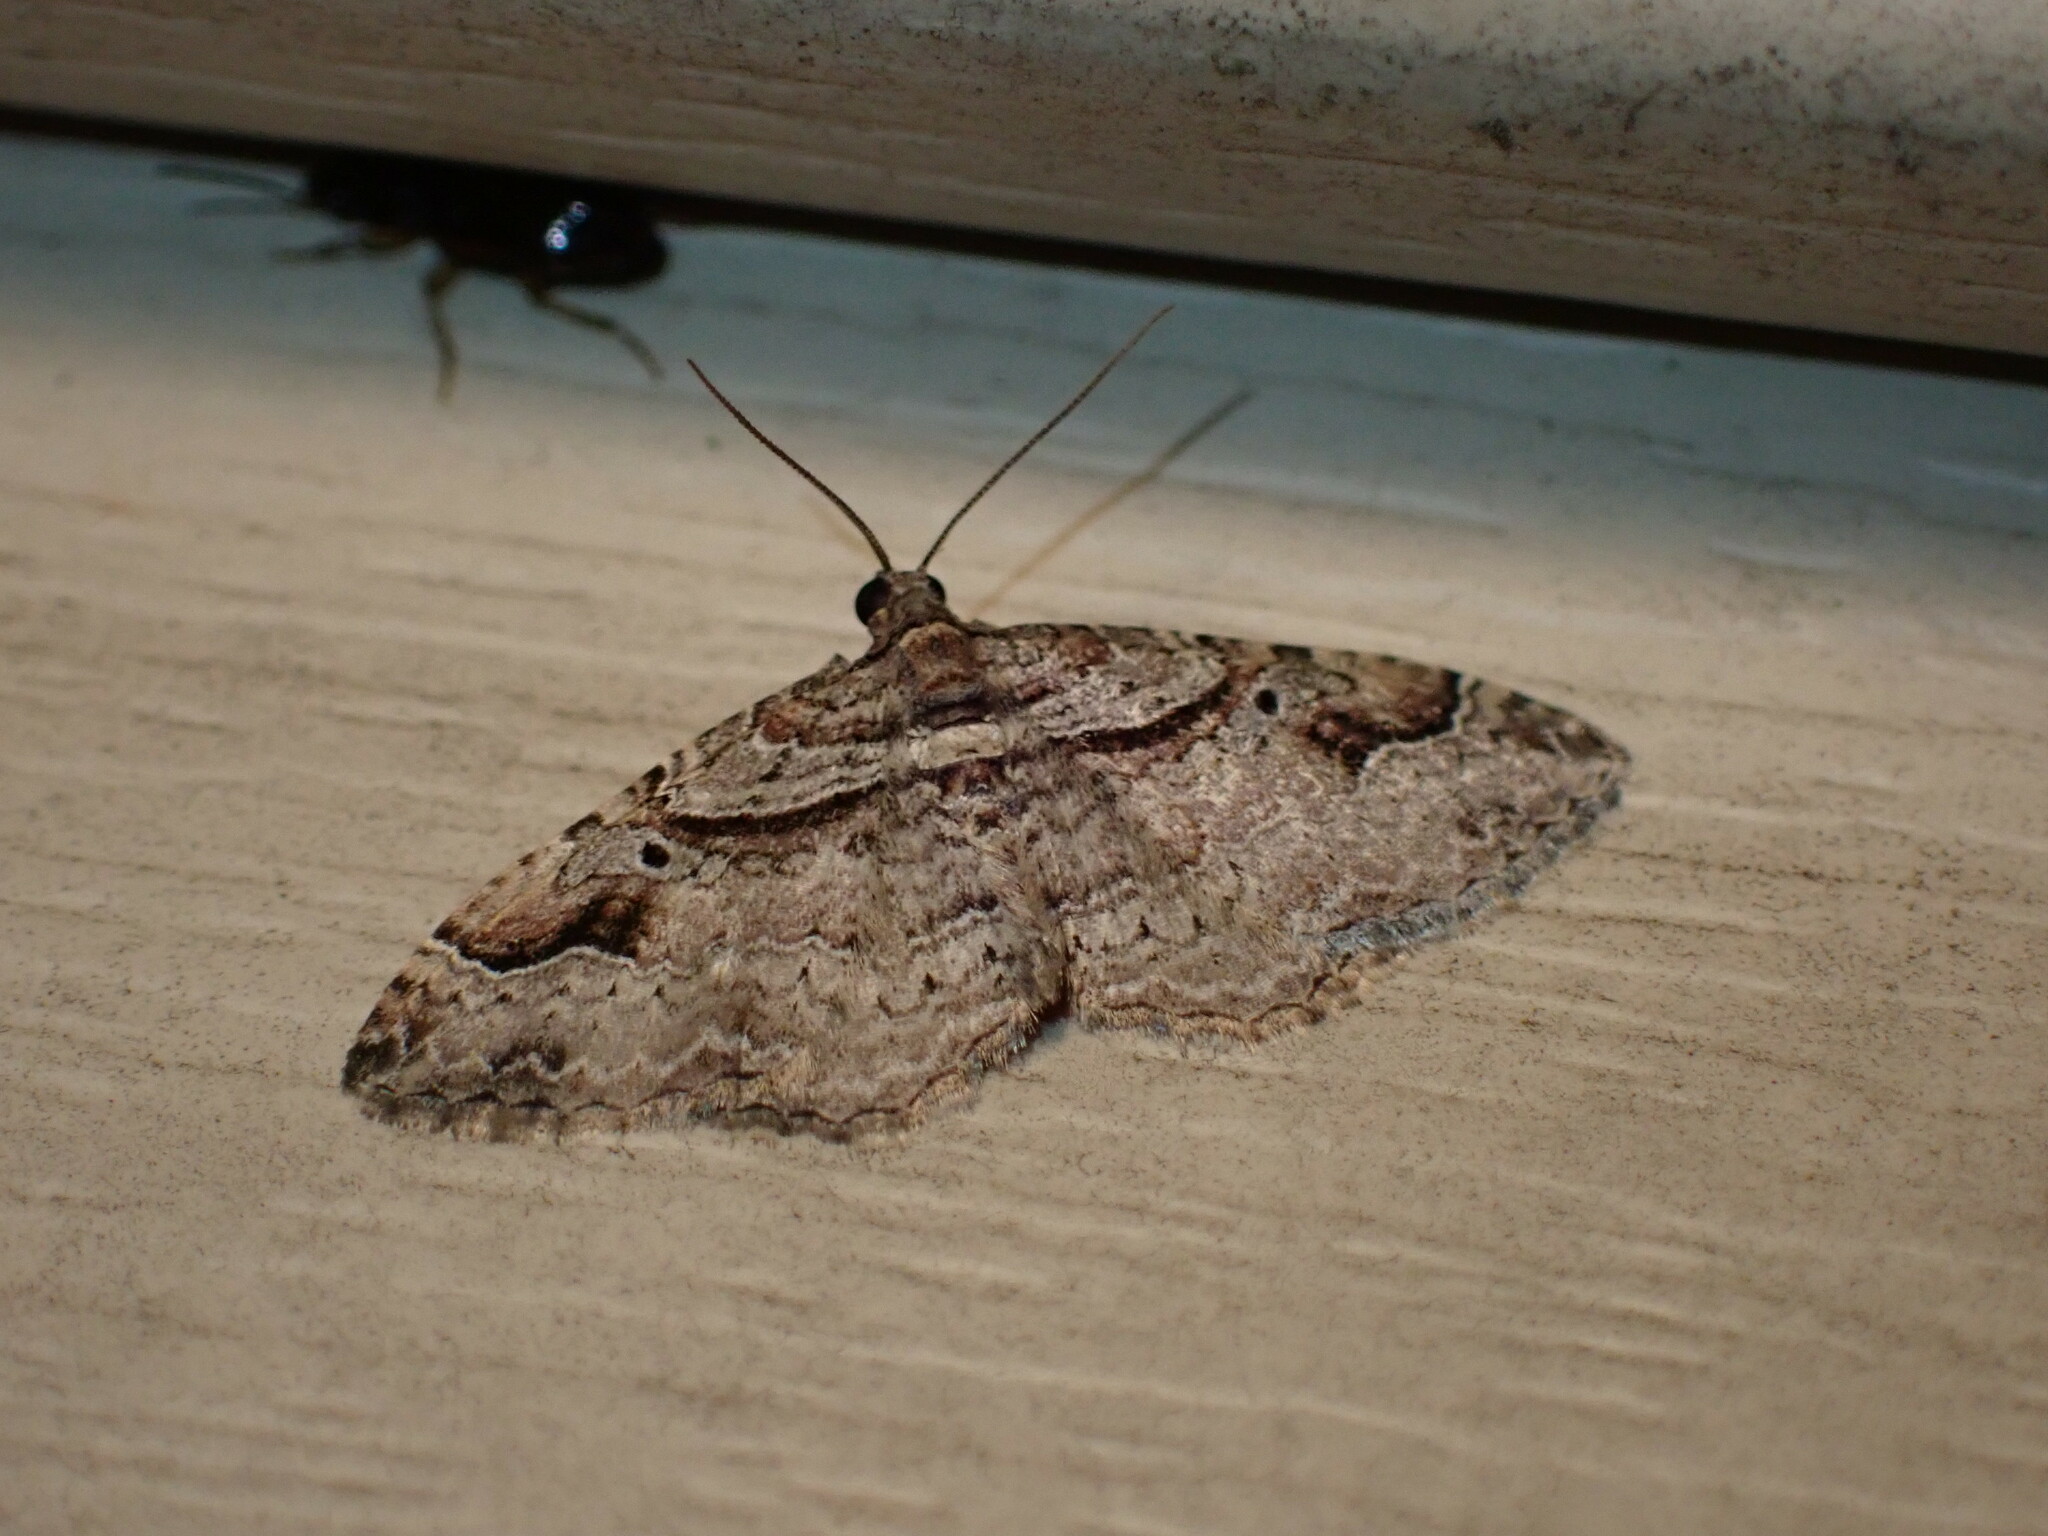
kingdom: Animalia
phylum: Arthropoda
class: Insecta
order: Lepidoptera
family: Geometridae
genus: Costaconvexa
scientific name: Costaconvexa centrostrigaria
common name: Bent-line carpet
